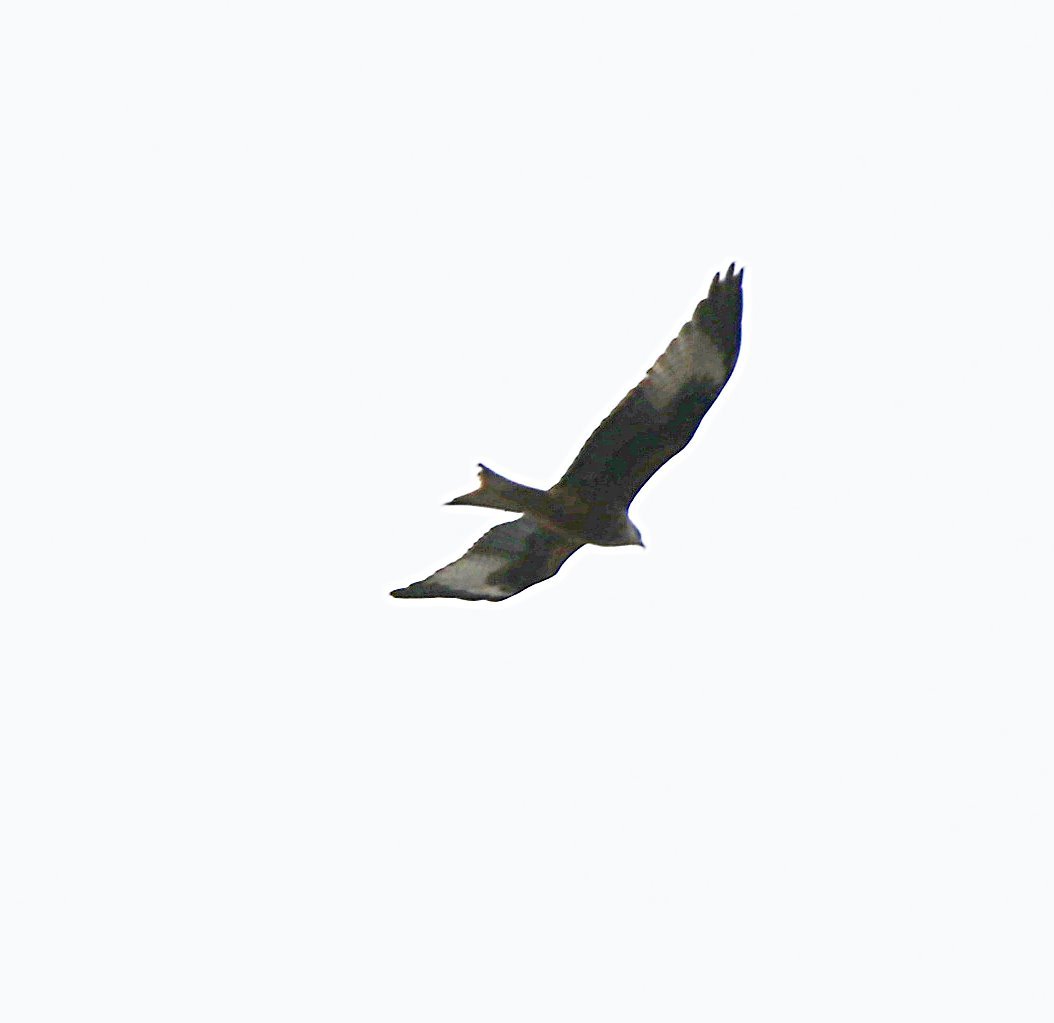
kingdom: Animalia
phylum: Chordata
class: Aves
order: Accipitriformes
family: Accipitridae
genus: Milvus
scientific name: Milvus milvus
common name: Red kite
